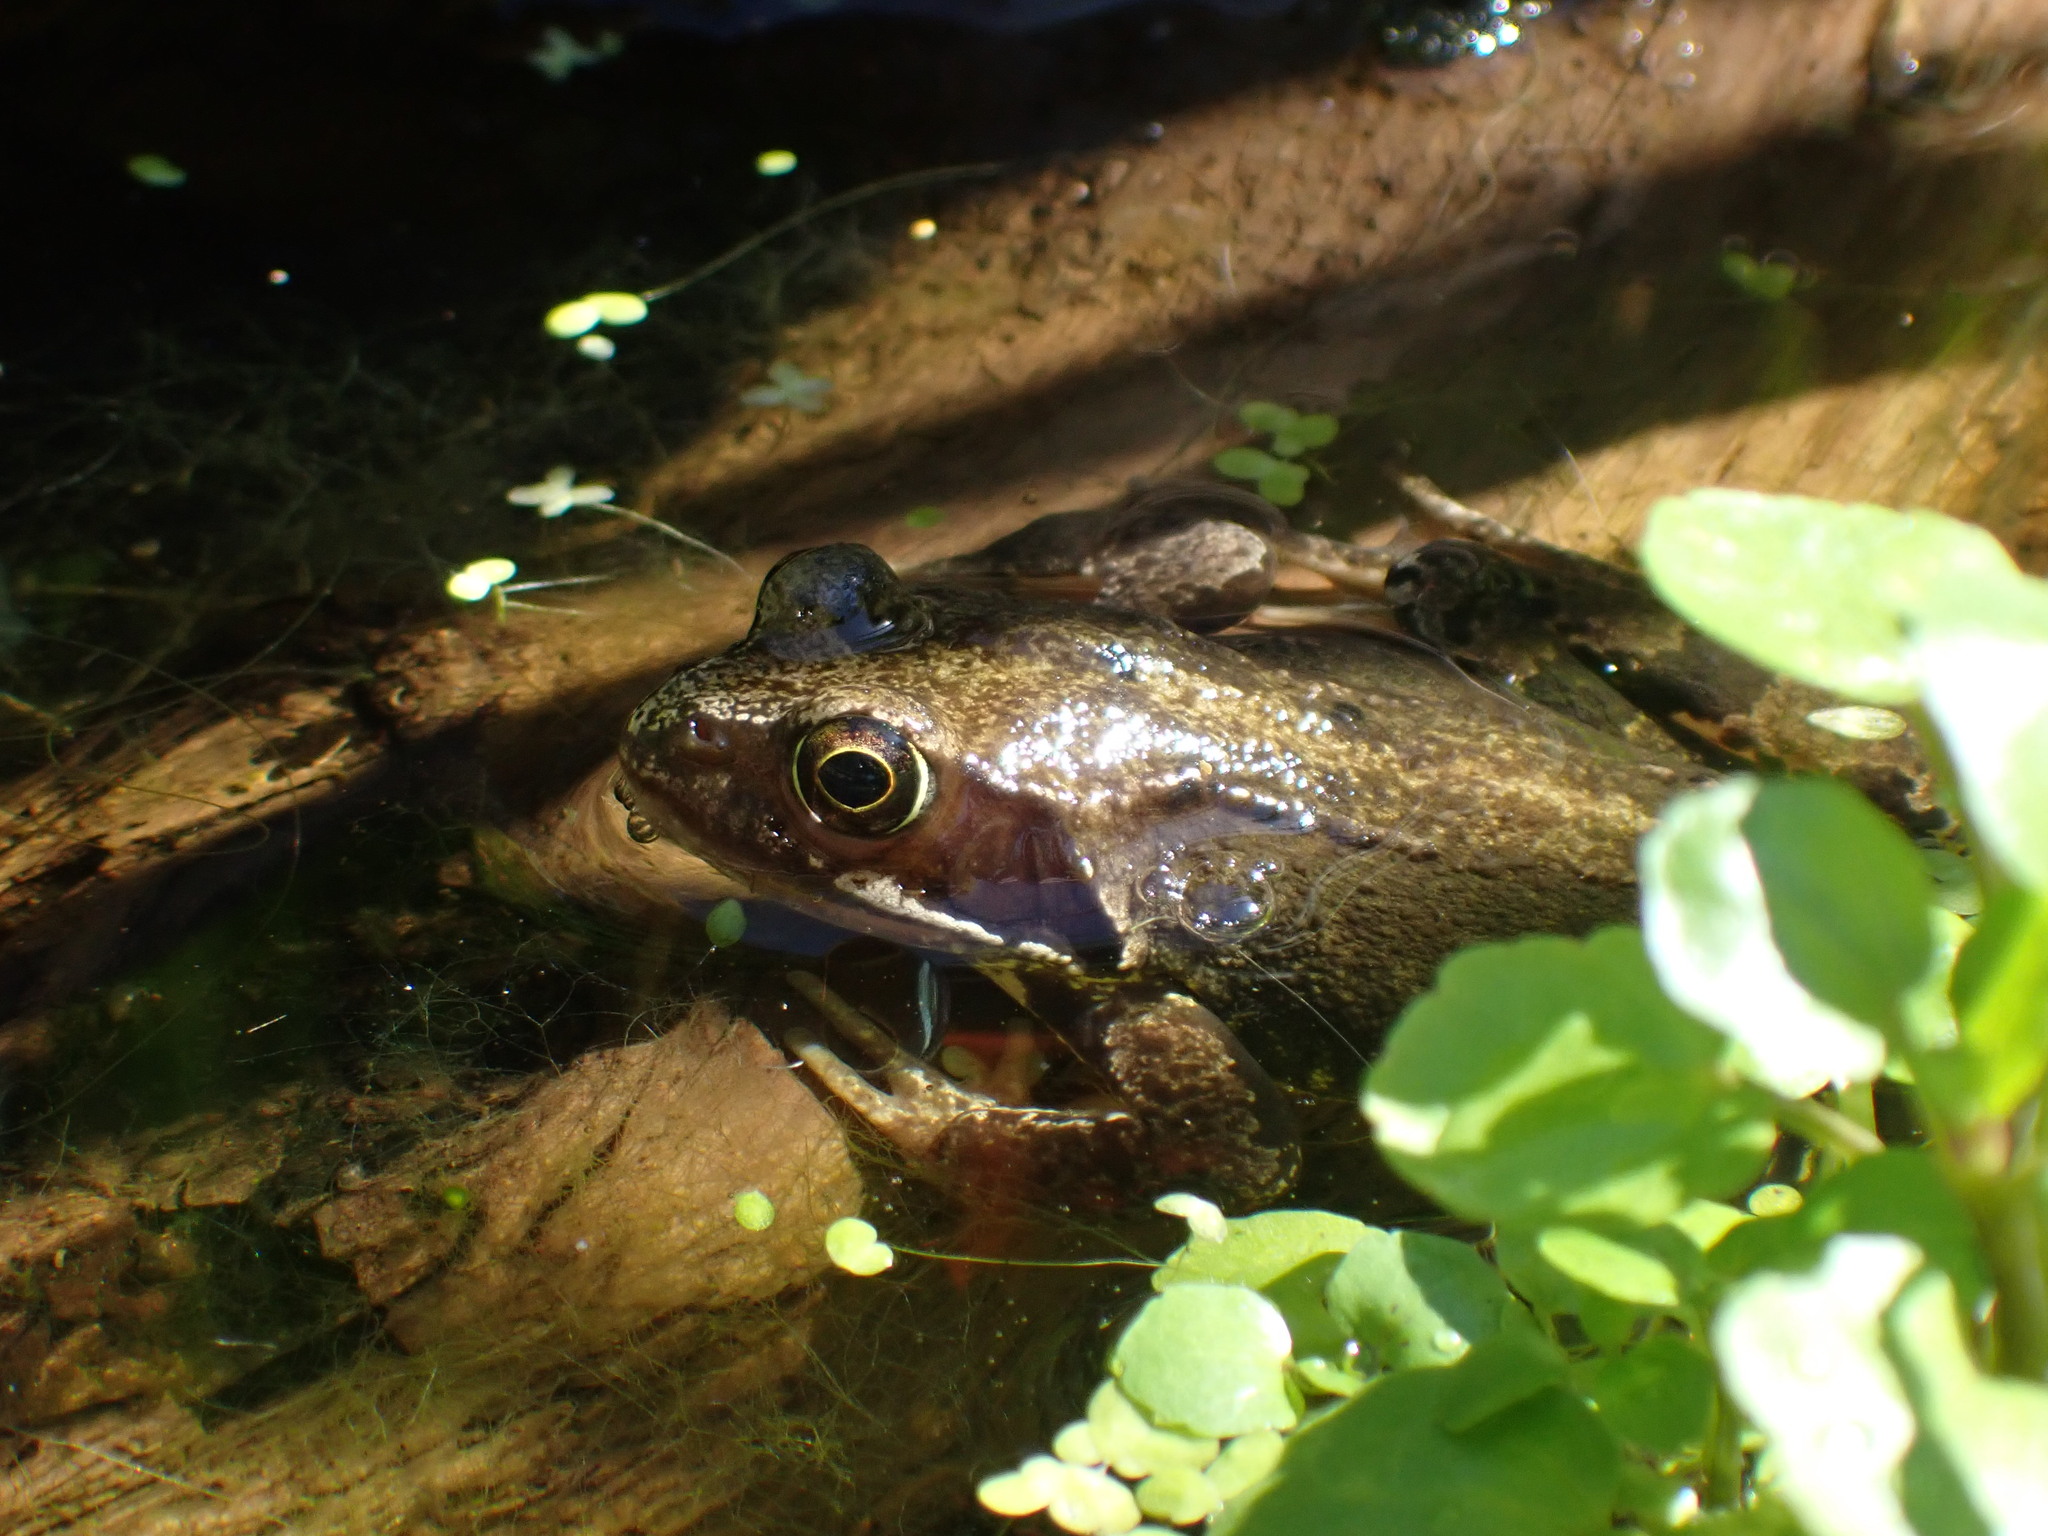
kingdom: Animalia
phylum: Chordata
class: Amphibia
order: Anura
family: Ranidae
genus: Rana
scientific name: Rana temporaria
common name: Common frog
